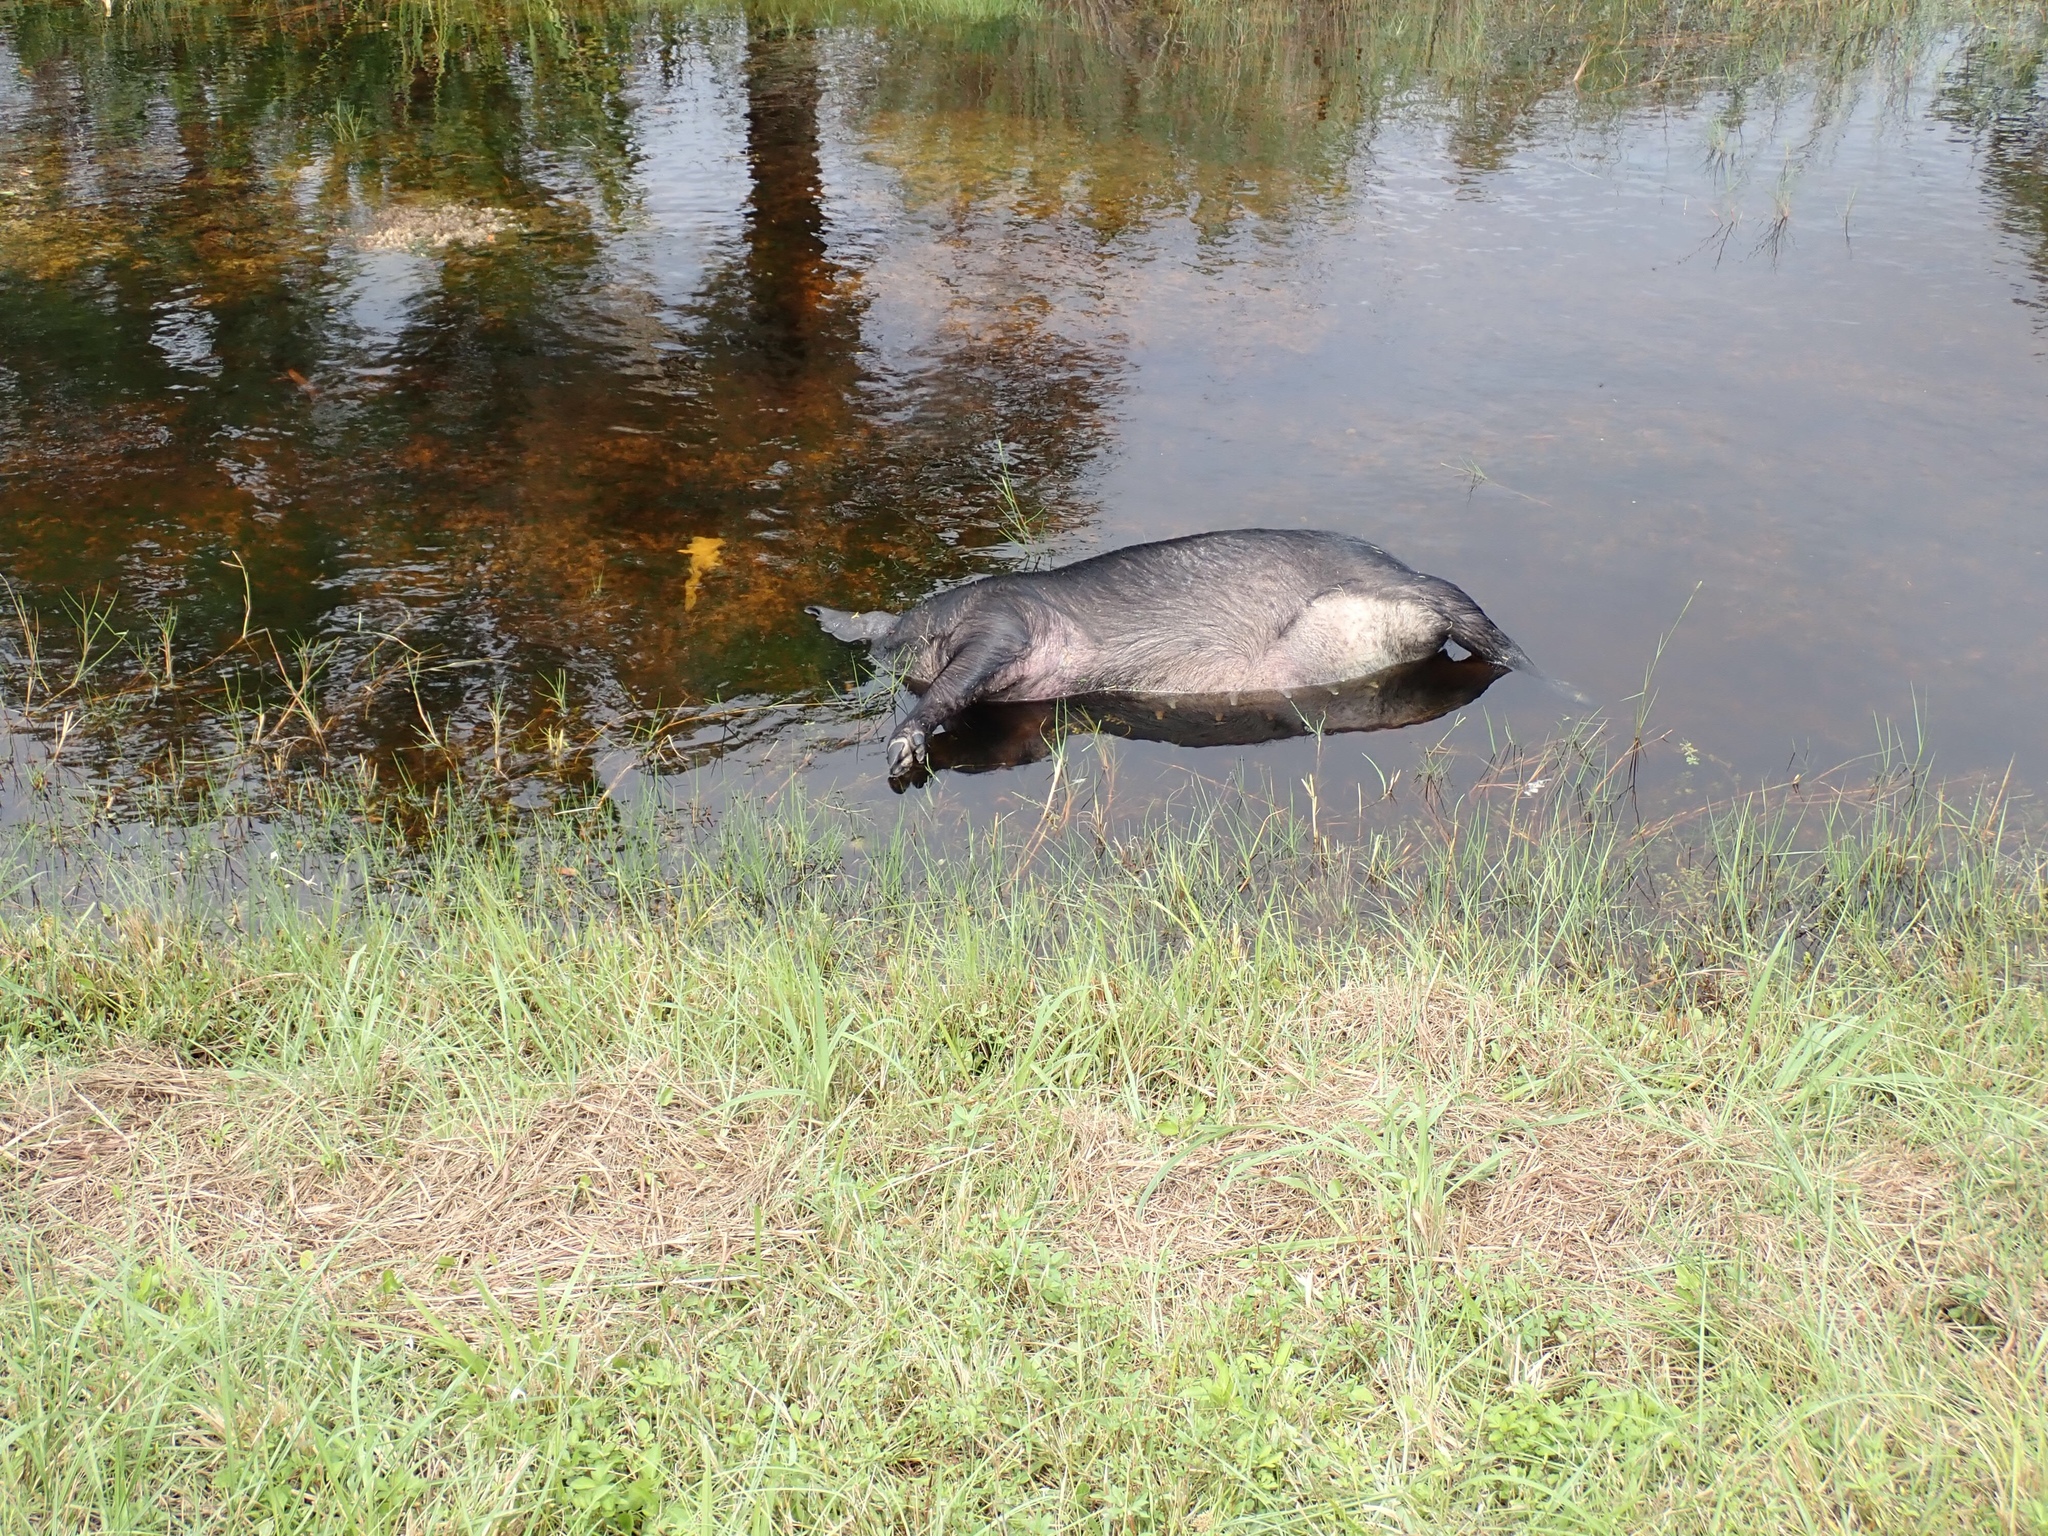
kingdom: Animalia
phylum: Chordata
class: Mammalia
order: Artiodactyla
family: Suidae
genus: Sus
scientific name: Sus scrofa
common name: Wild boar
